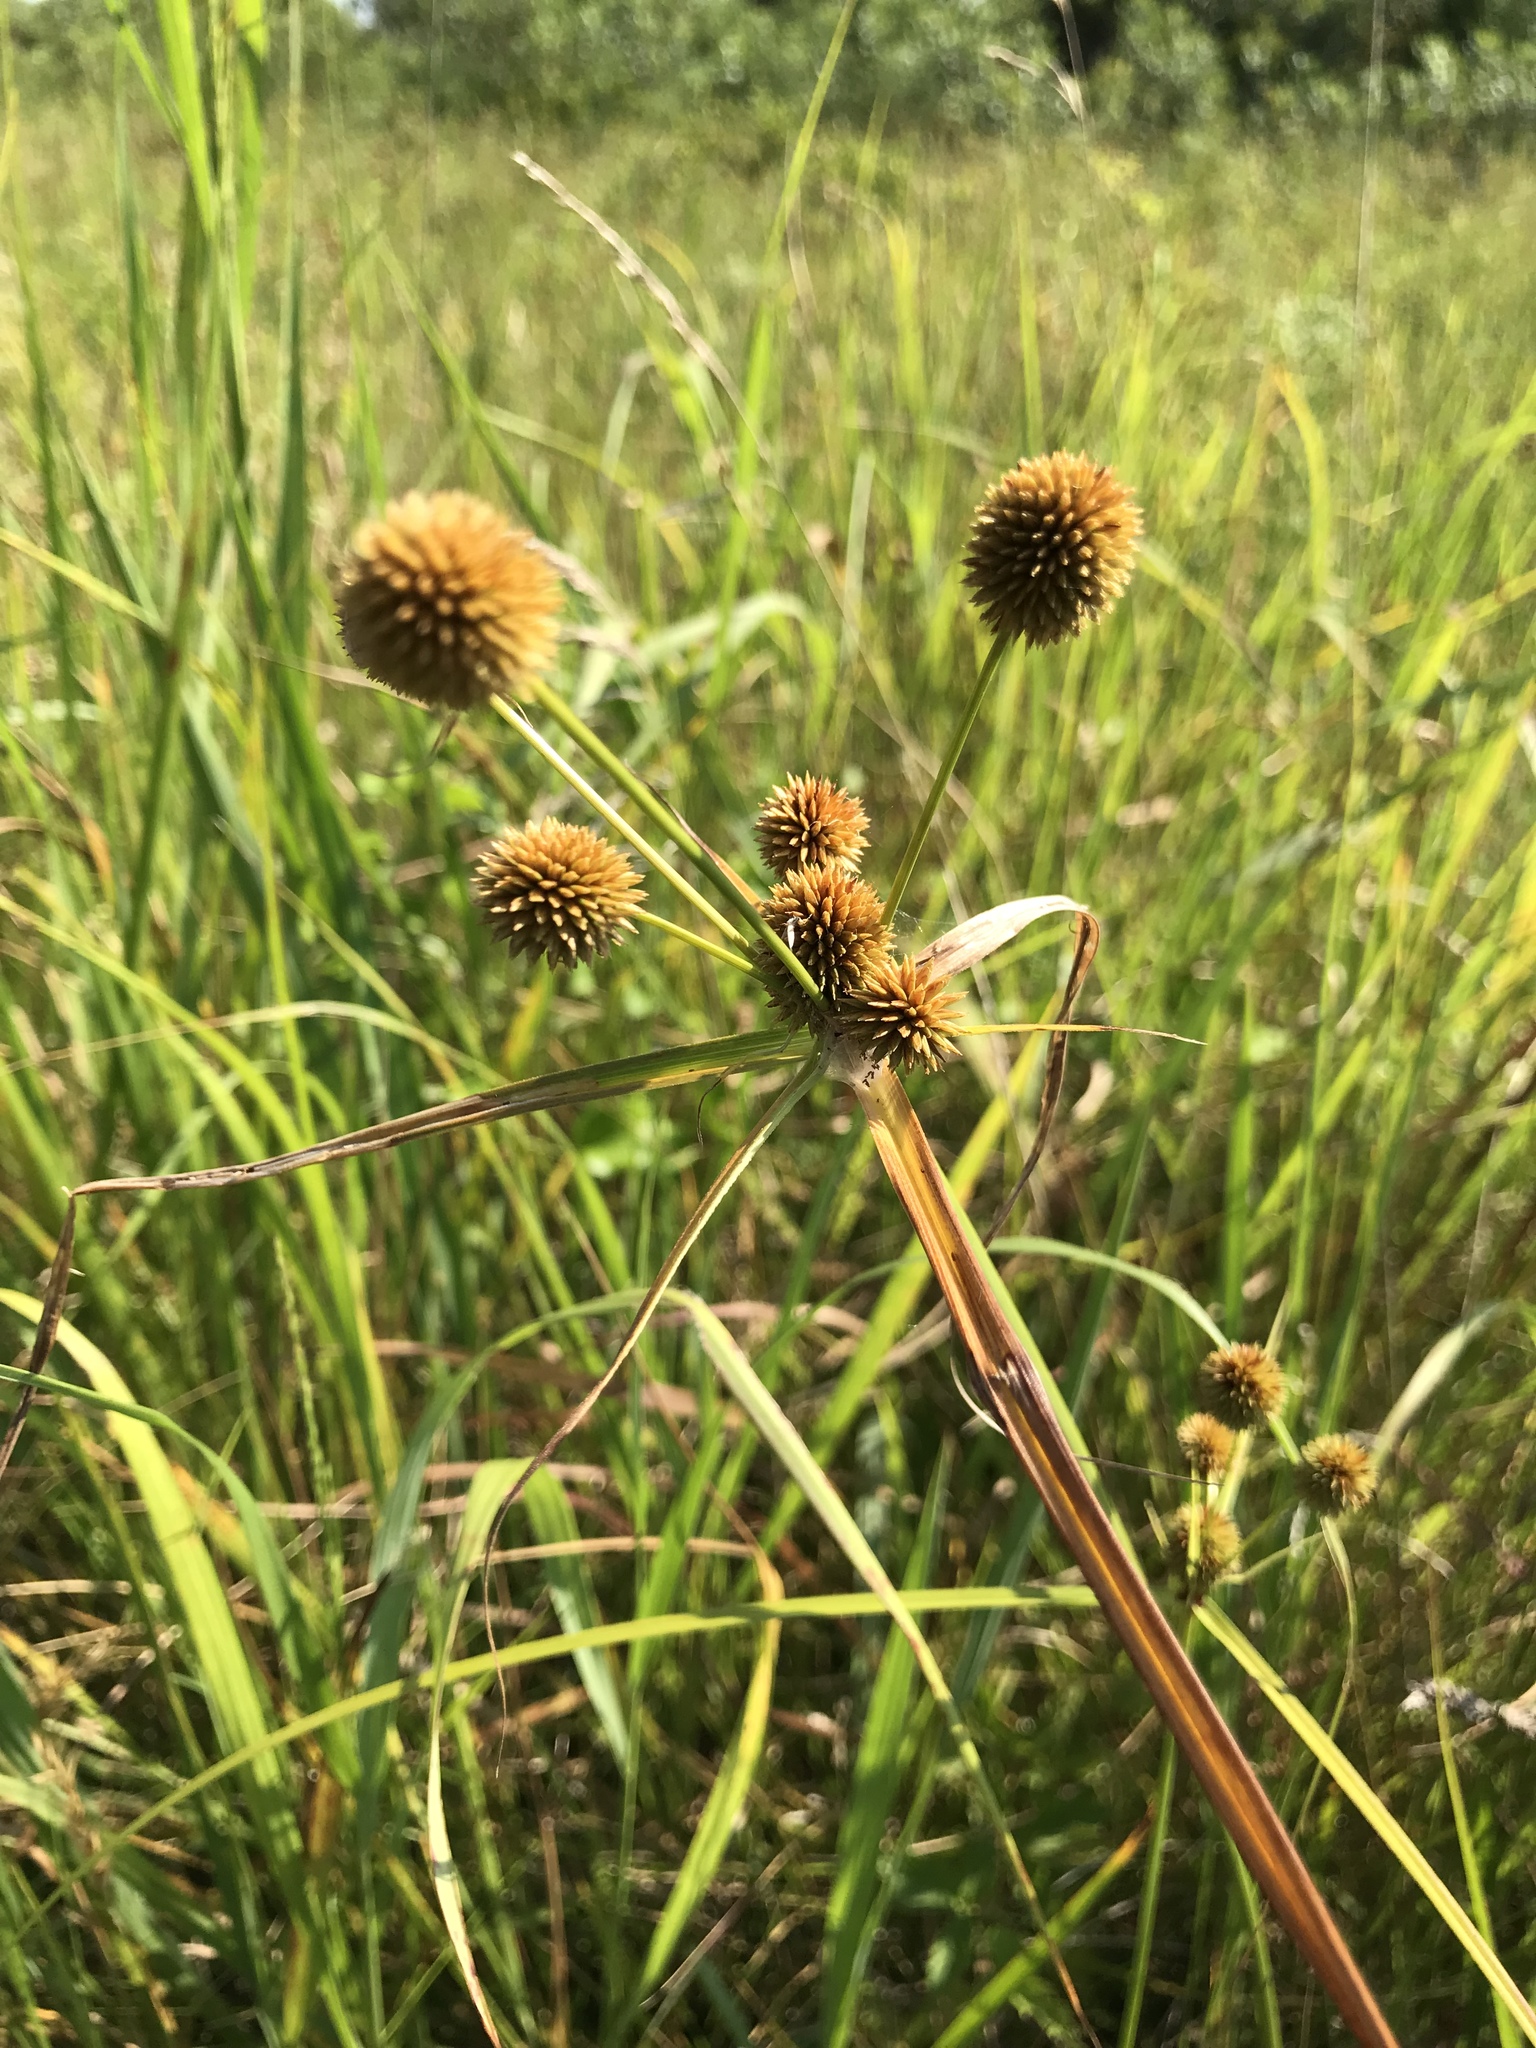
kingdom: Plantae
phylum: Tracheophyta
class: Liliopsida
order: Poales
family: Cyperaceae
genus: Cyperus
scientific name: Cyperus echinatus
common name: Teasel sedge
